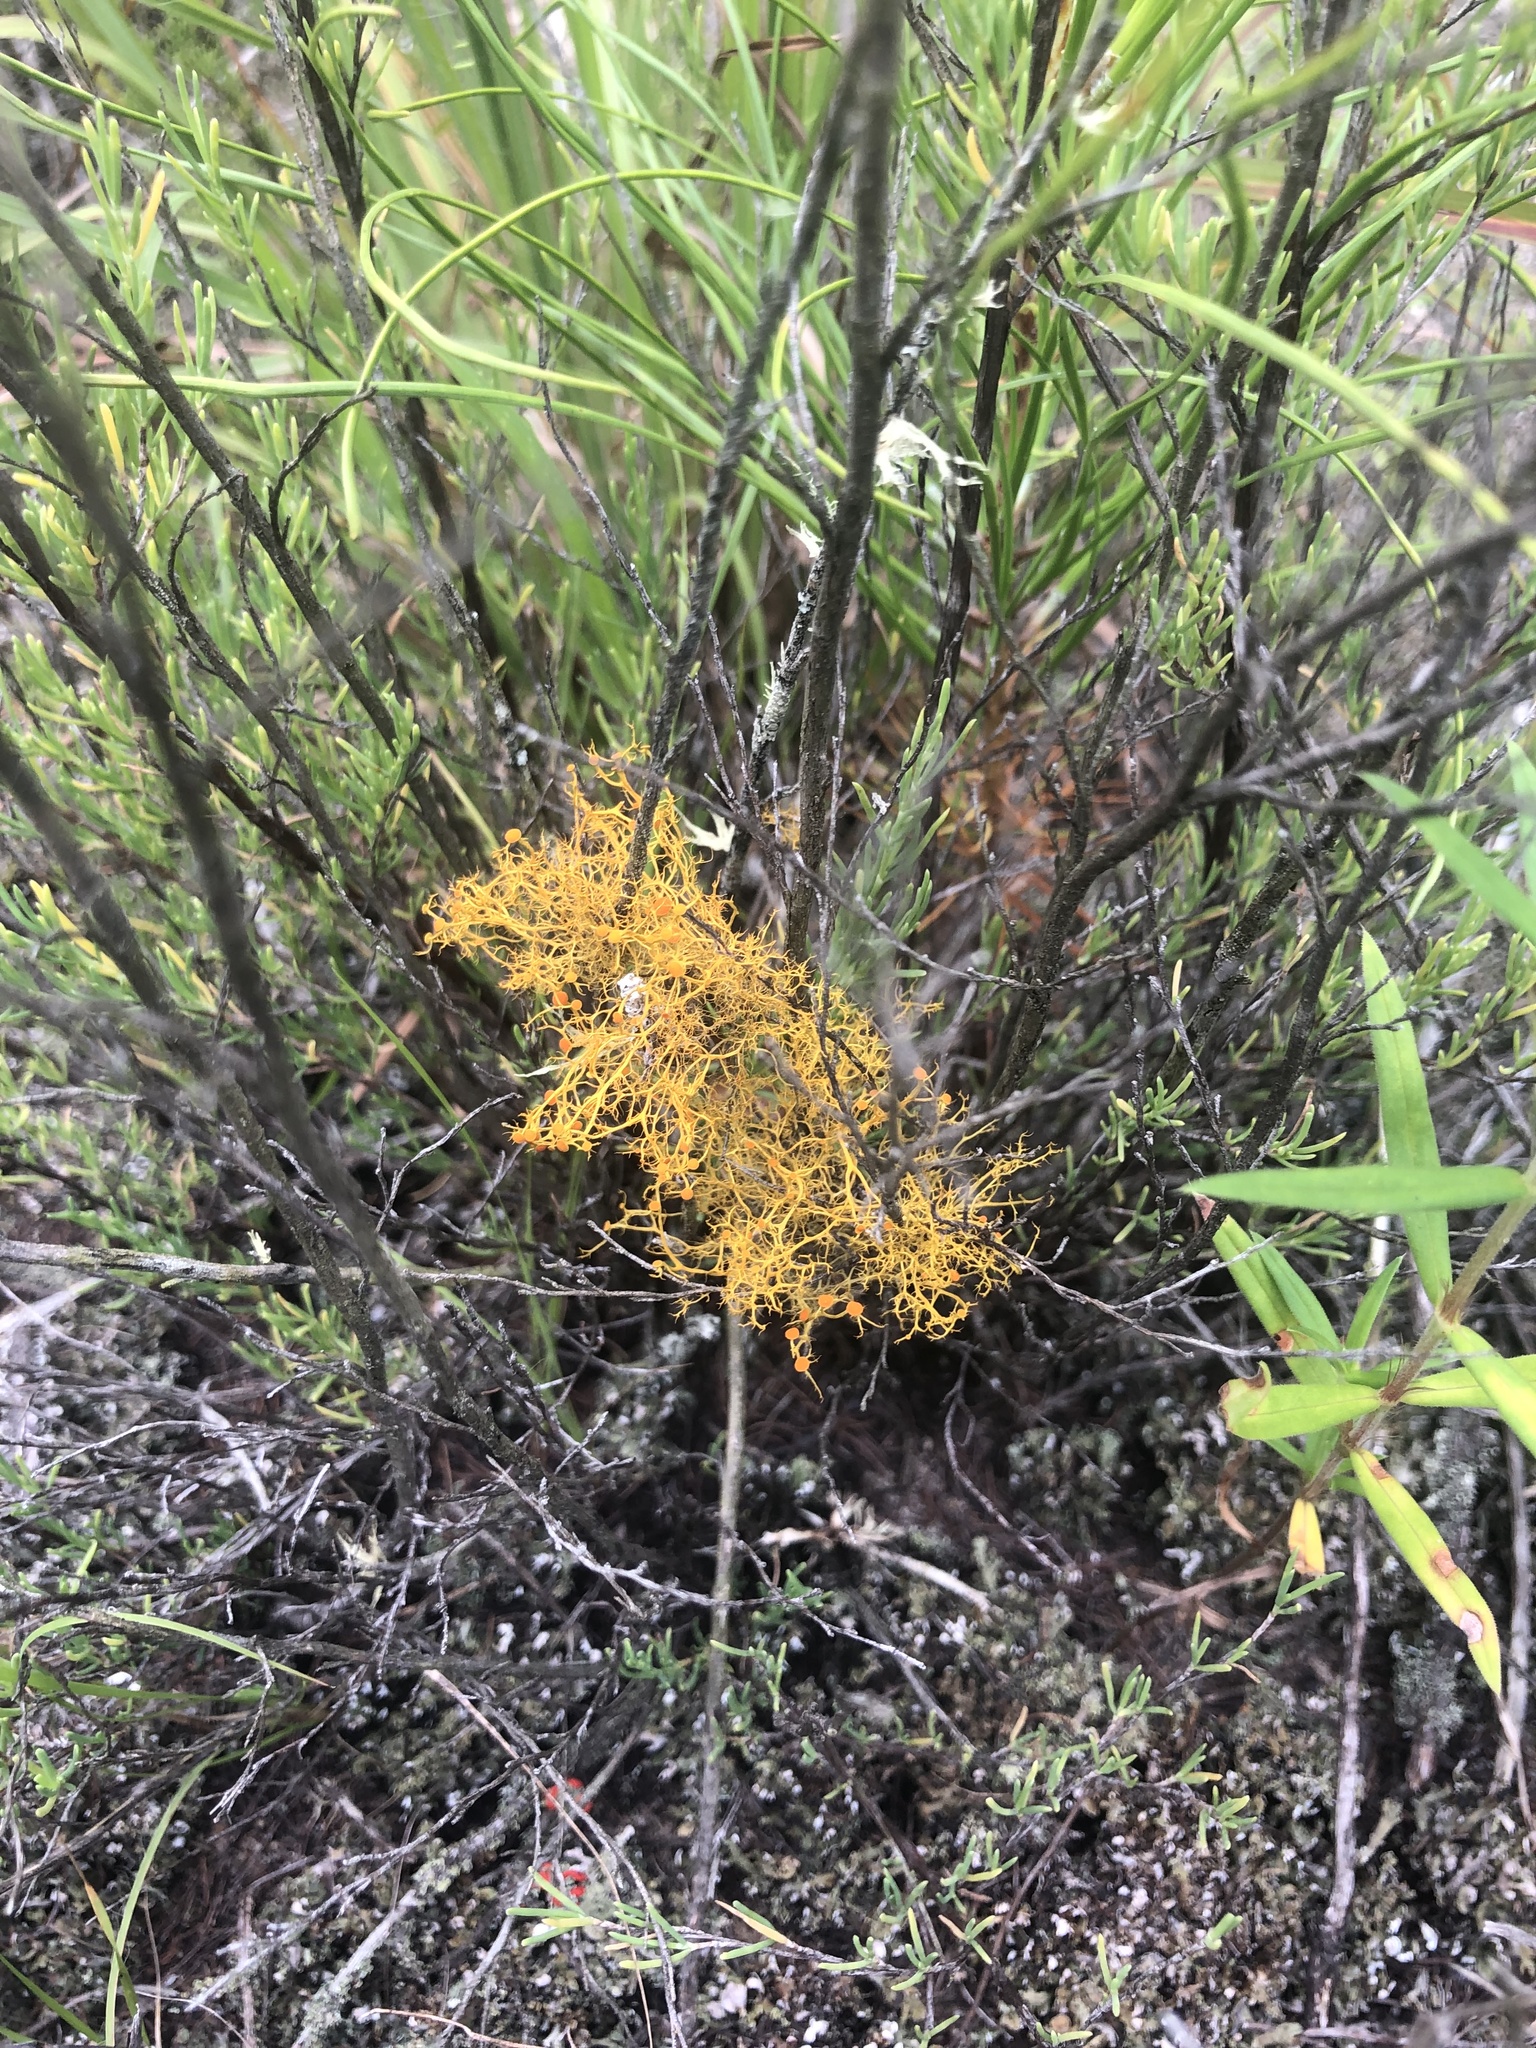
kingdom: Fungi
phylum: Ascomycota
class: Lecanoromycetes
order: Teloschistales
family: Teloschistaceae
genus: Teloschistes
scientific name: Teloschistes exilis
